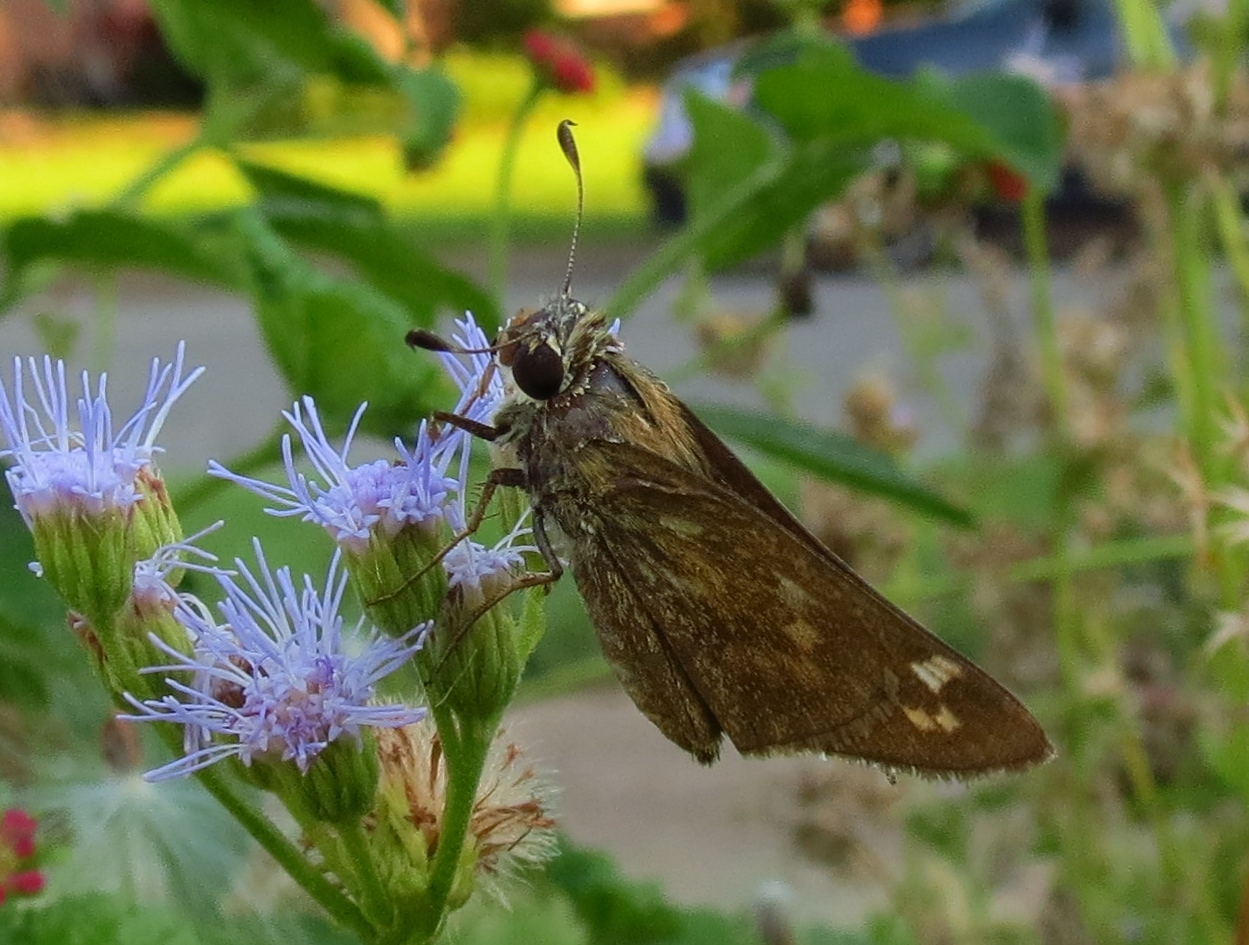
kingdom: Animalia
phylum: Arthropoda
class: Insecta
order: Lepidoptera
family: Hesperiidae
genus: Atalopedes
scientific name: Atalopedes
